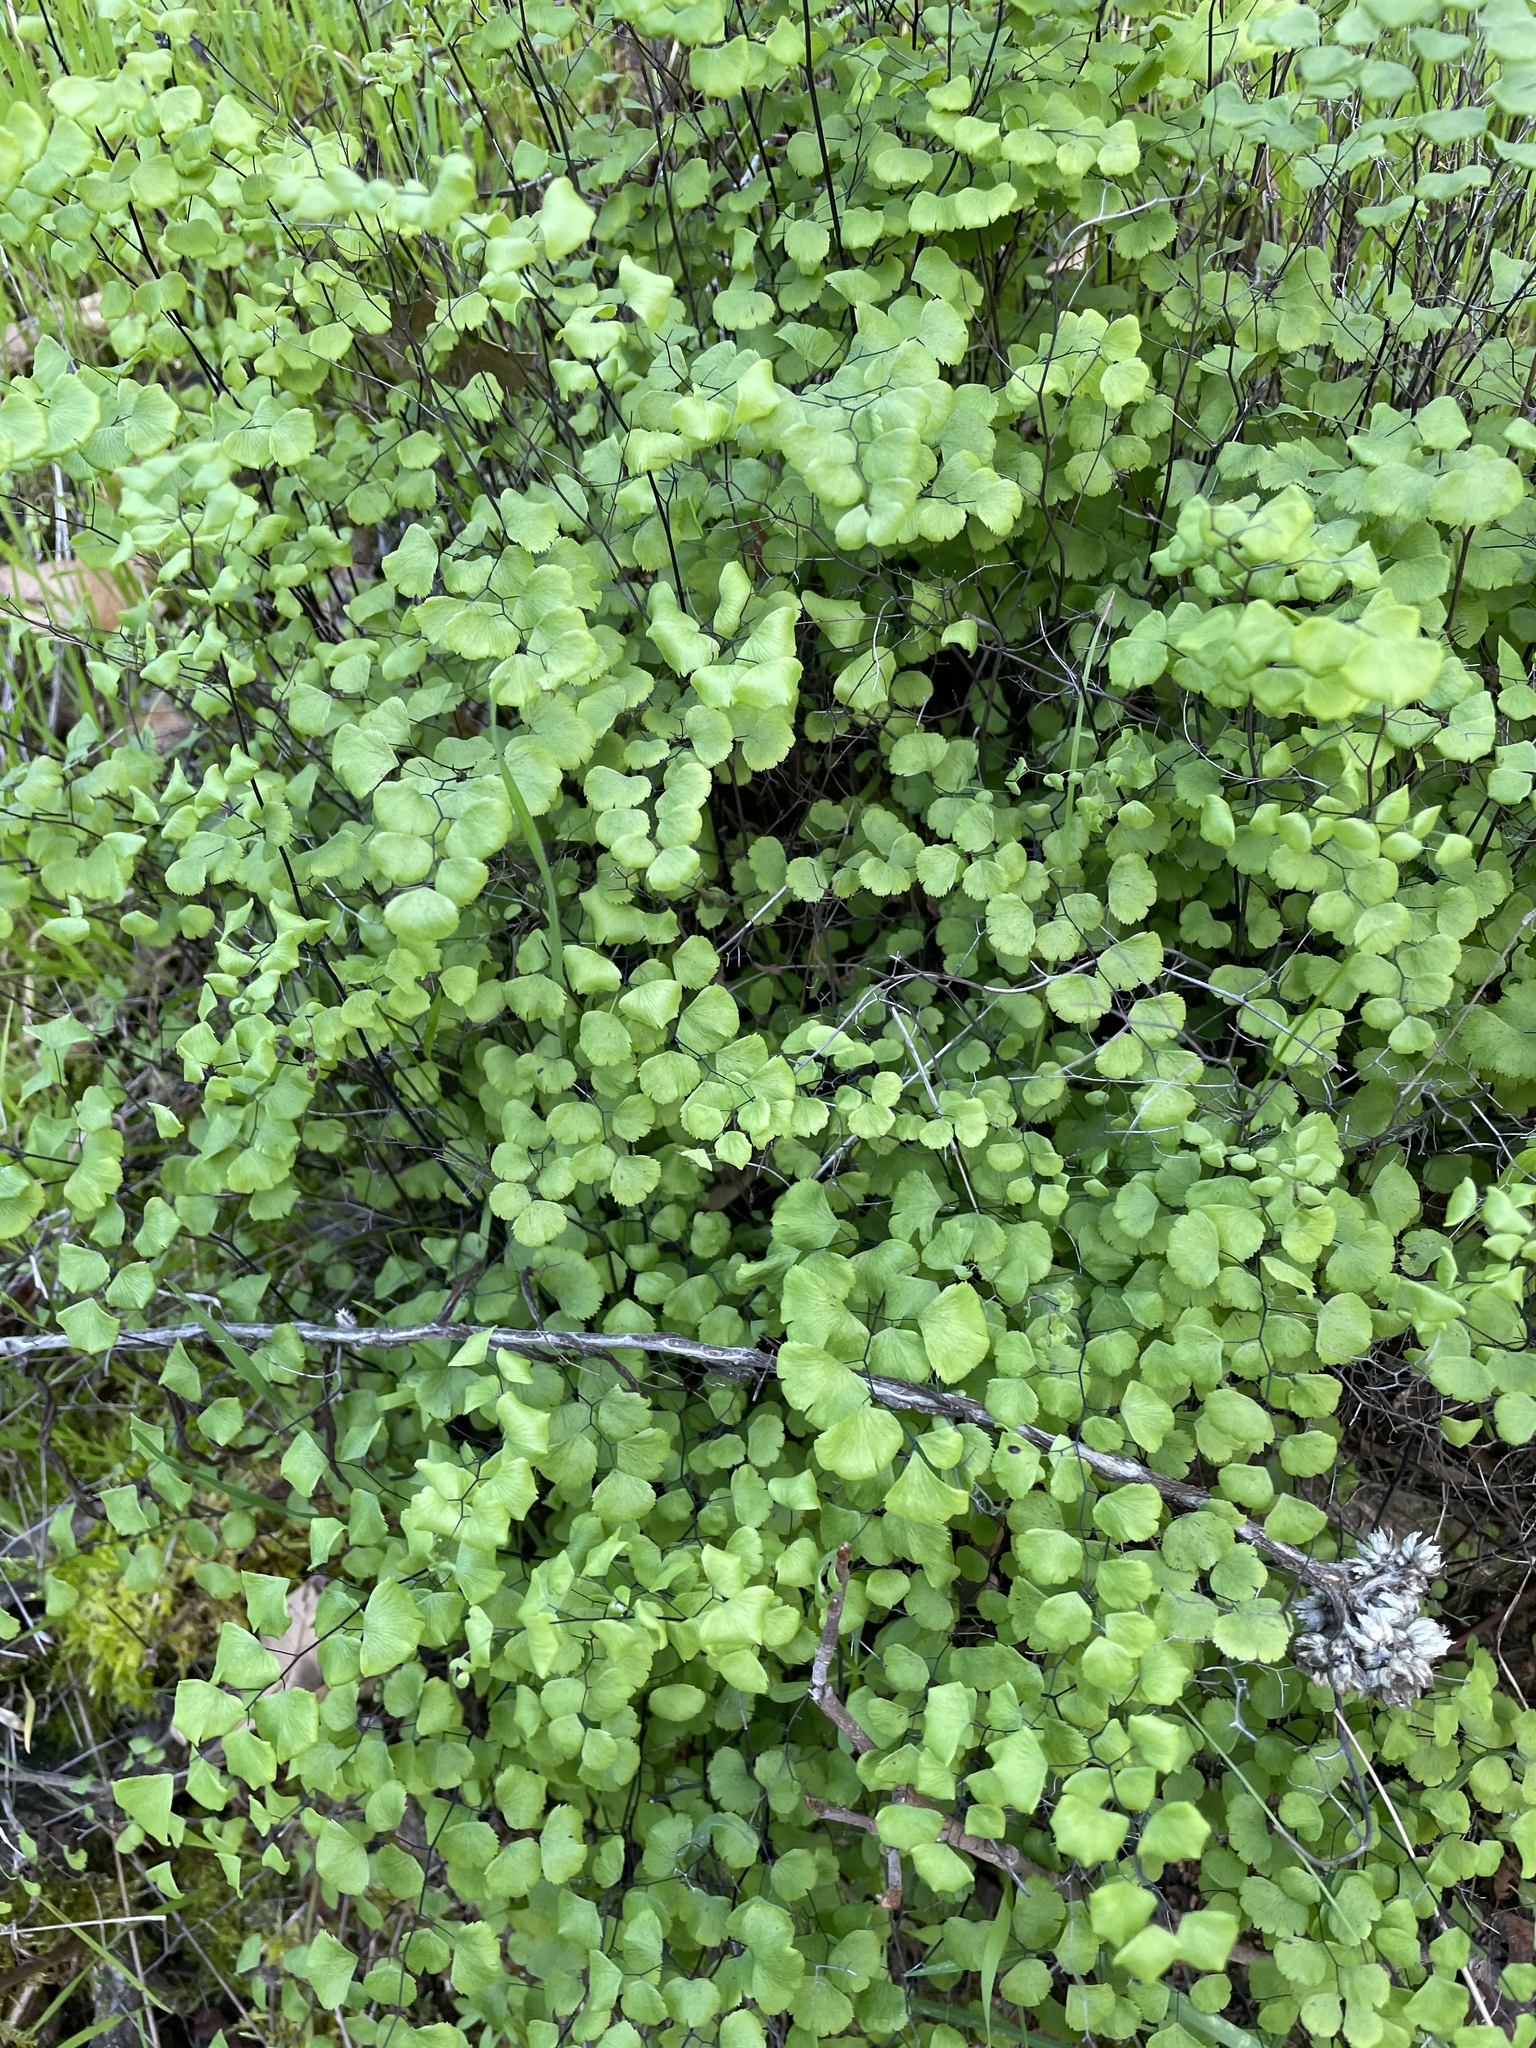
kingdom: Plantae
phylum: Tracheophyta
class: Polypodiopsida
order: Polypodiales
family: Pteridaceae
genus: Adiantum
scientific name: Adiantum jordanii
